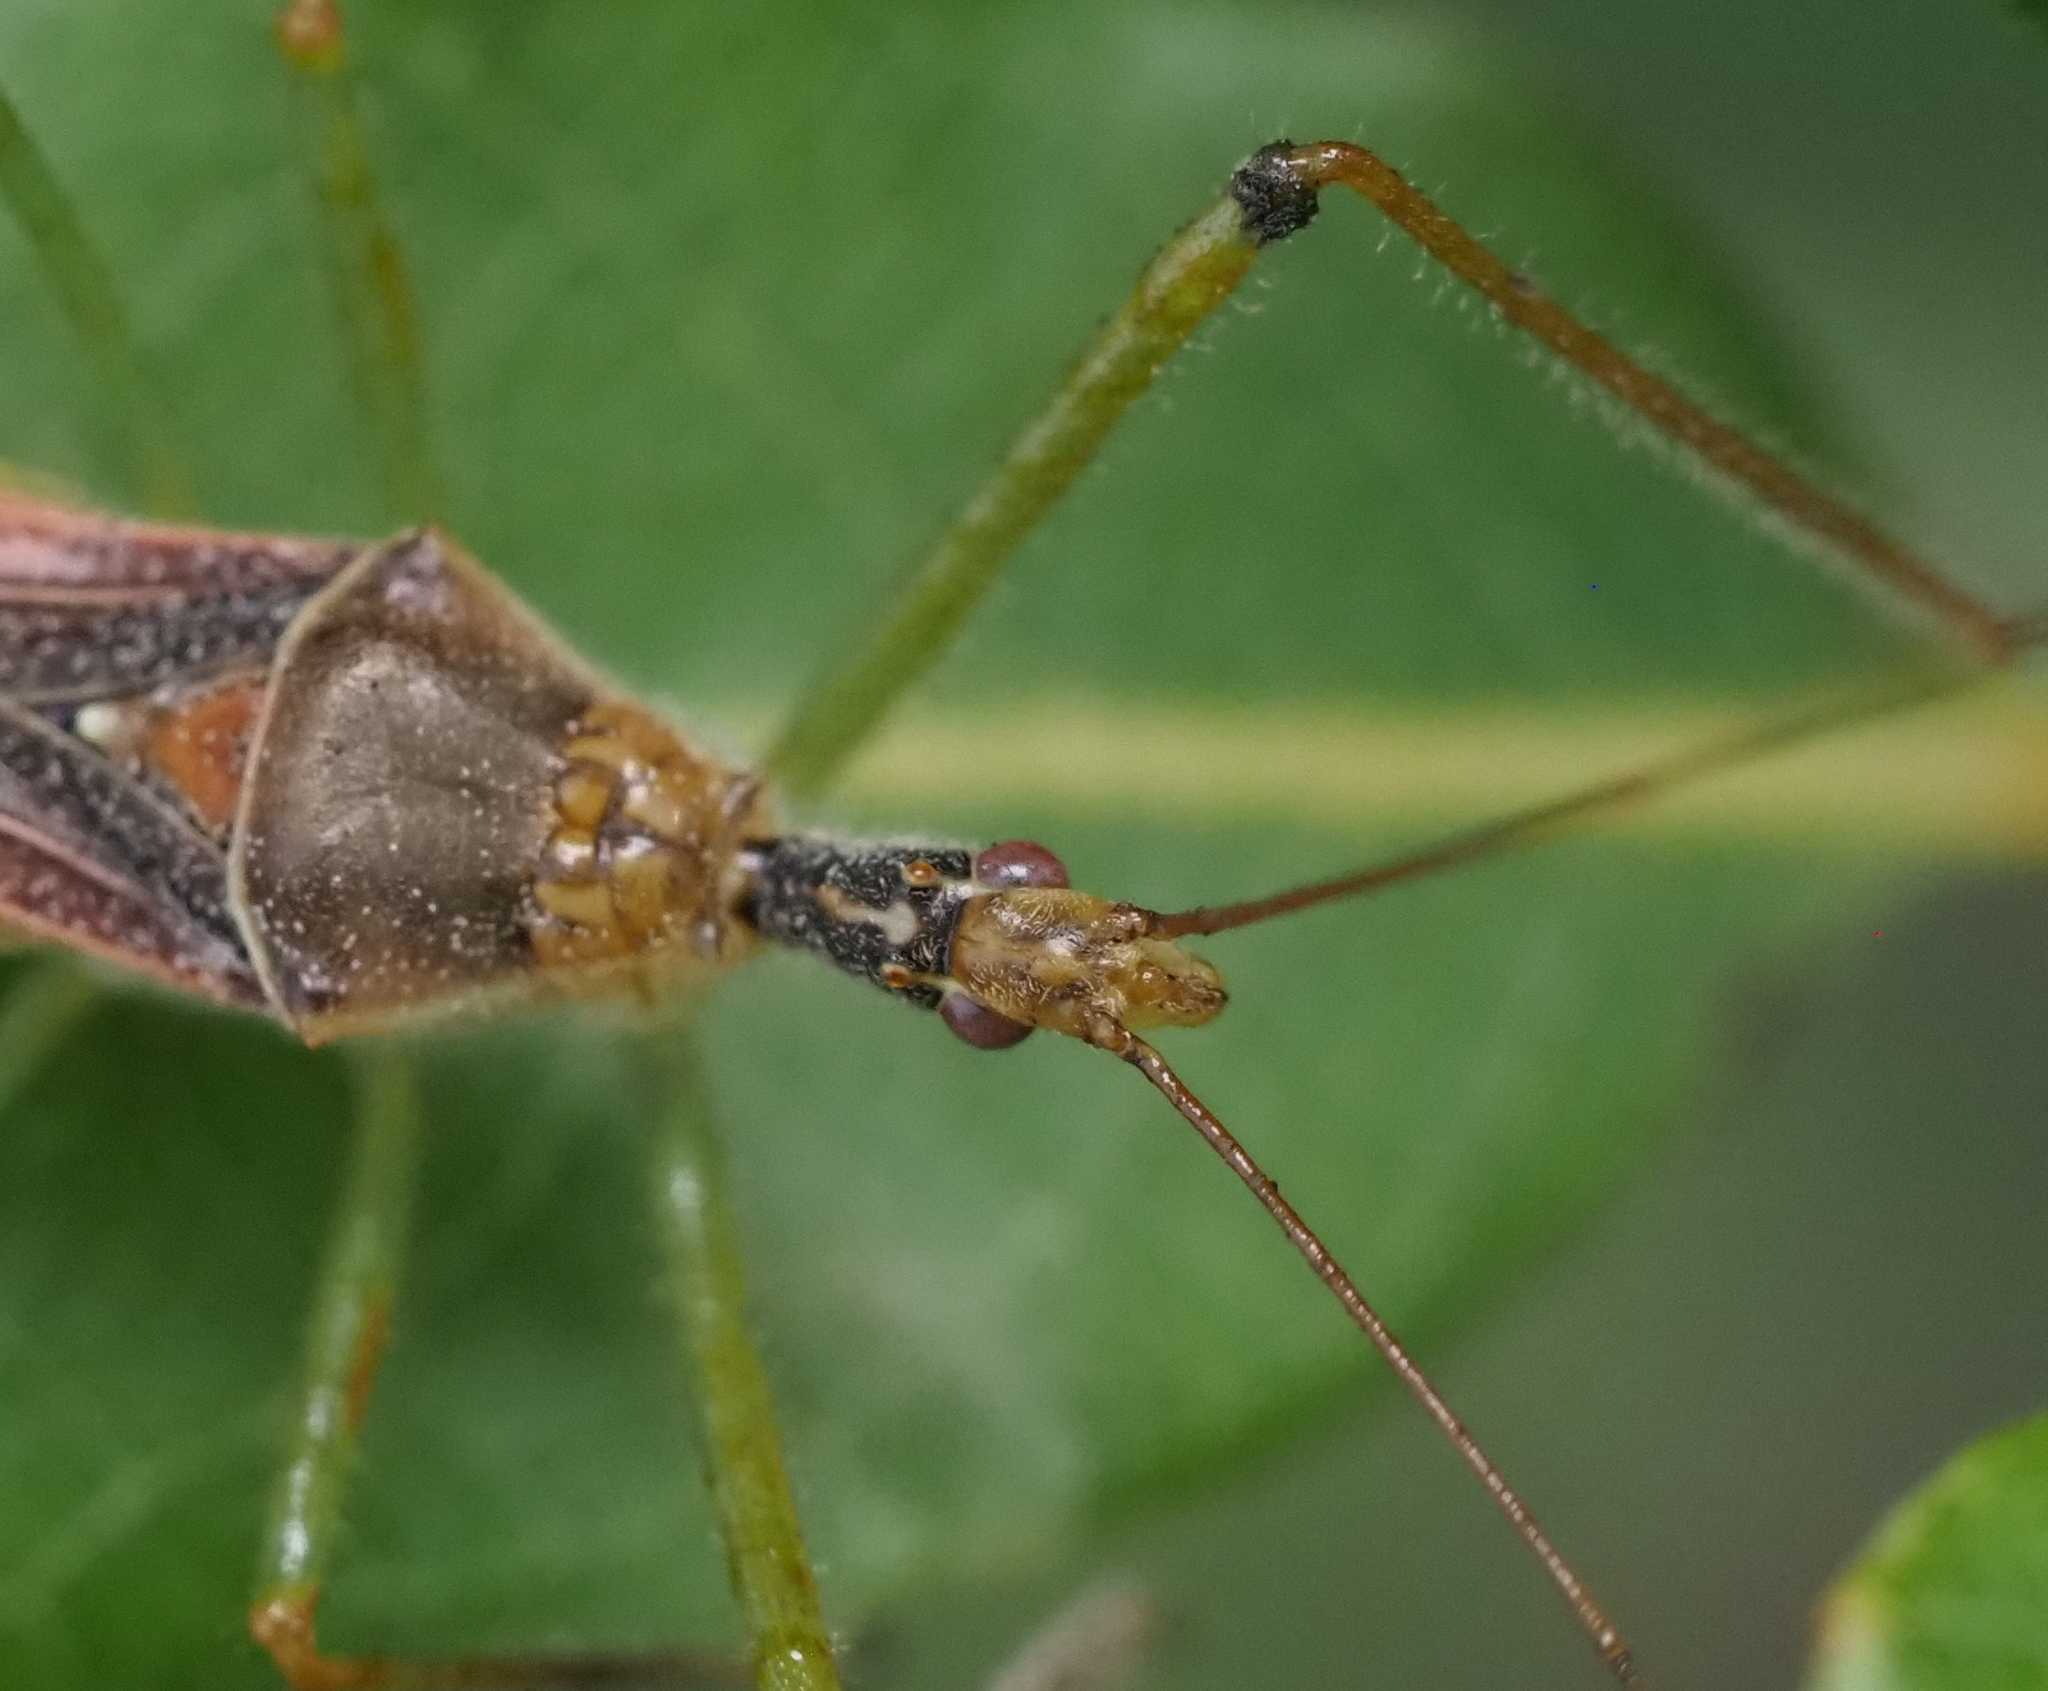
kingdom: Animalia
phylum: Arthropoda
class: Insecta
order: Hemiptera
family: Reduviidae
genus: Zelus
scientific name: Zelus renardii
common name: Assassin bug
